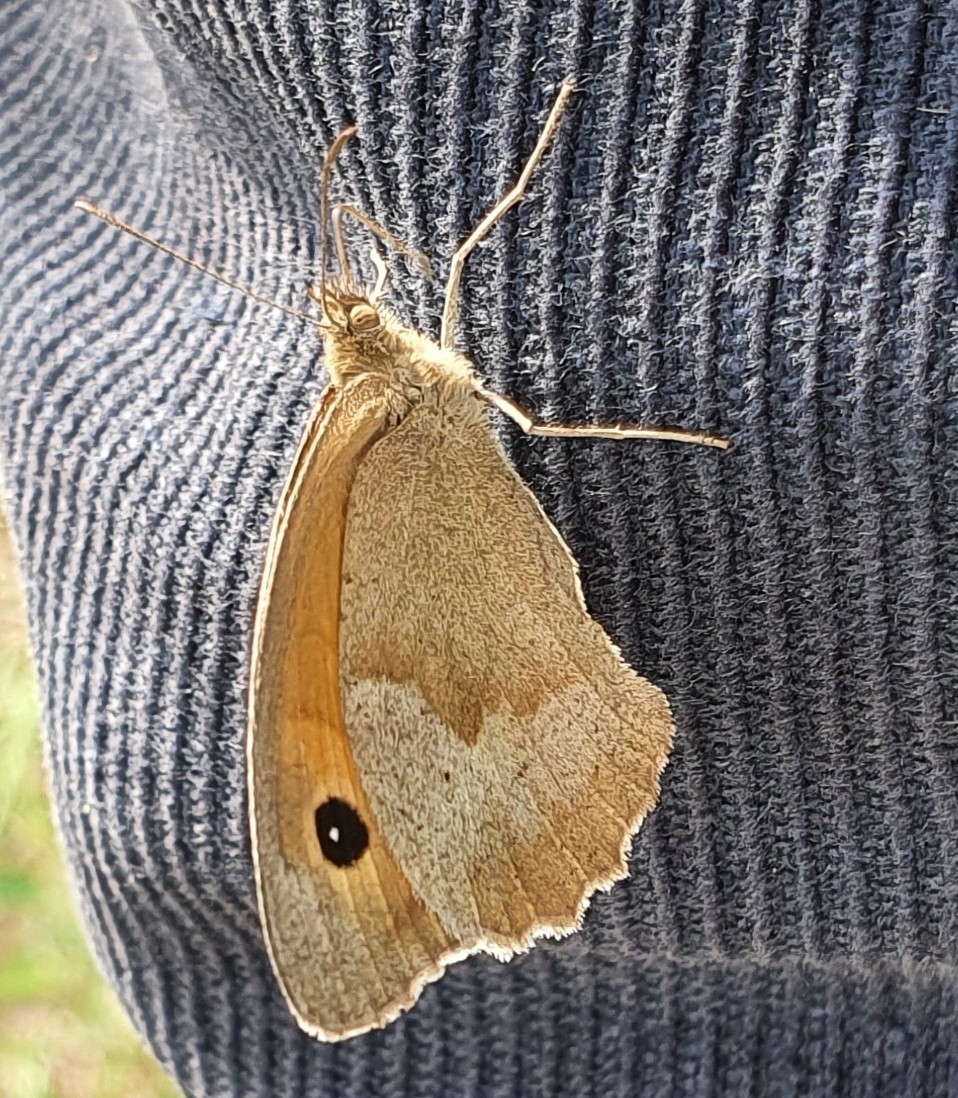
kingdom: Animalia
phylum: Arthropoda
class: Insecta
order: Lepidoptera
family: Nymphalidae
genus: Maniola
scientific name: Maniola jurtina
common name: Meadow brown
